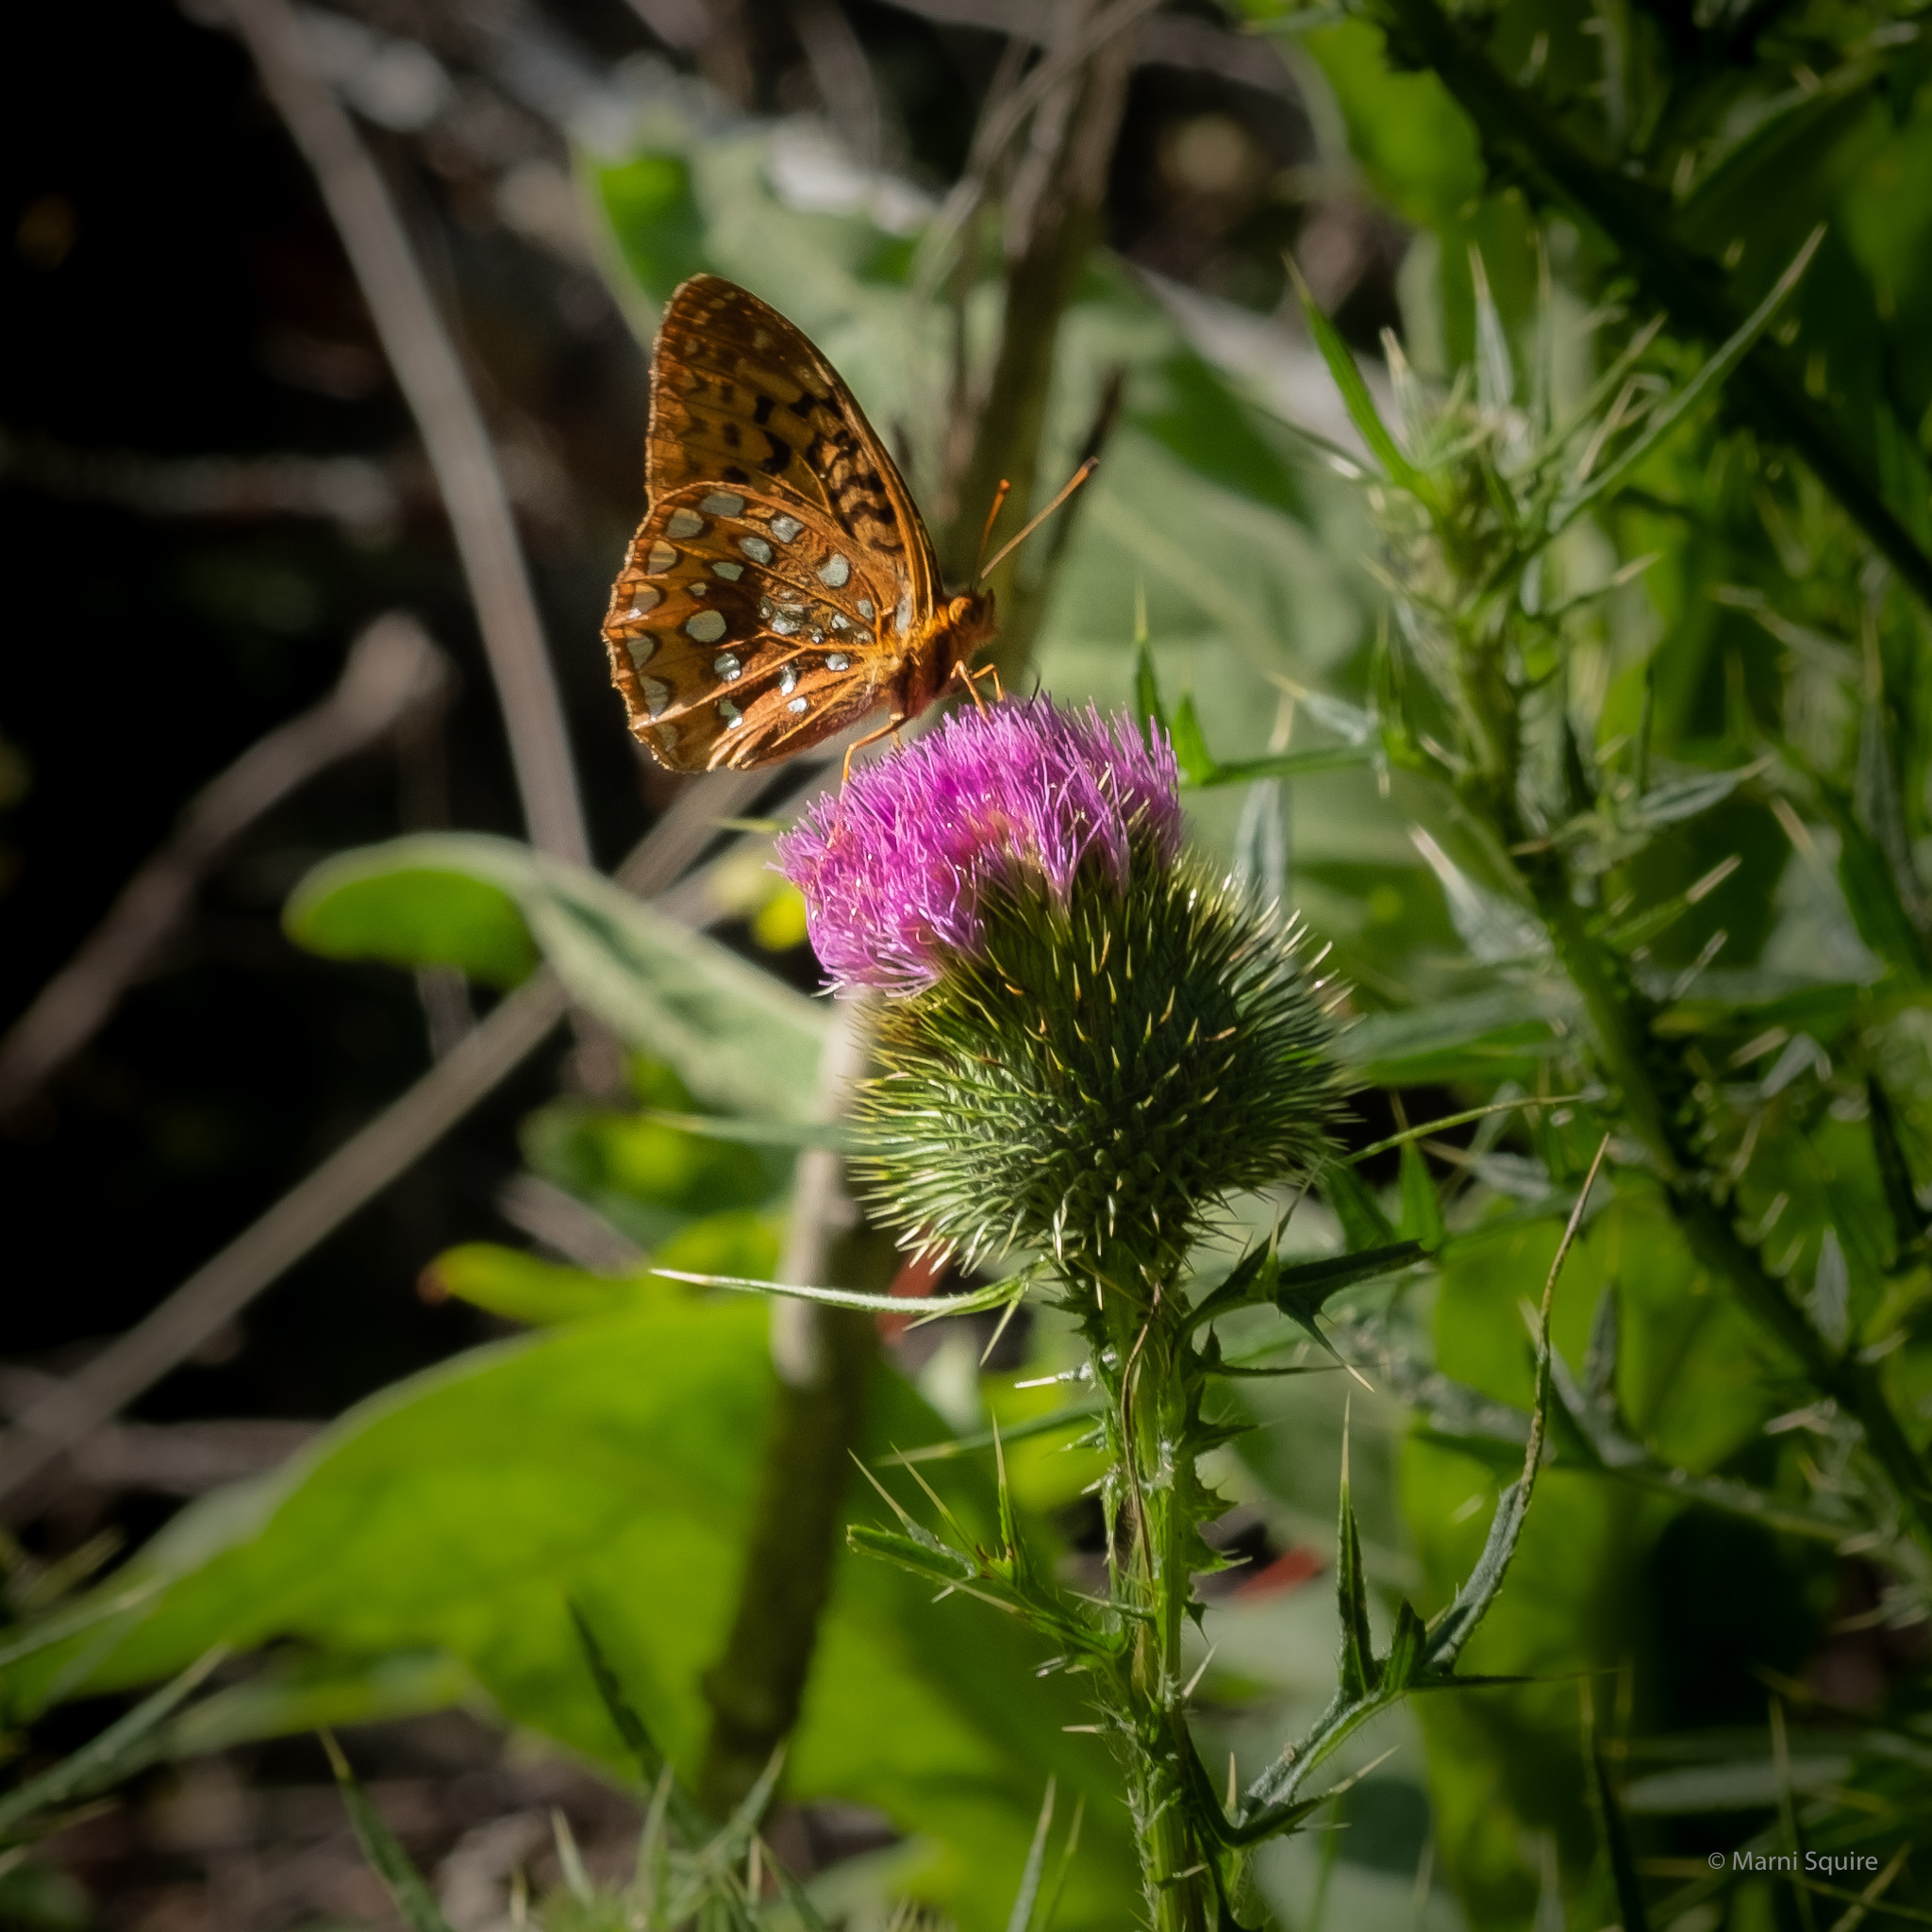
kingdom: Animalia
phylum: Arthropoda
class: Insecta
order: Lepidoptera
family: Nymphalidae
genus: Speyeria
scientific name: Speyeria cybele
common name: Great spangled fritillary
